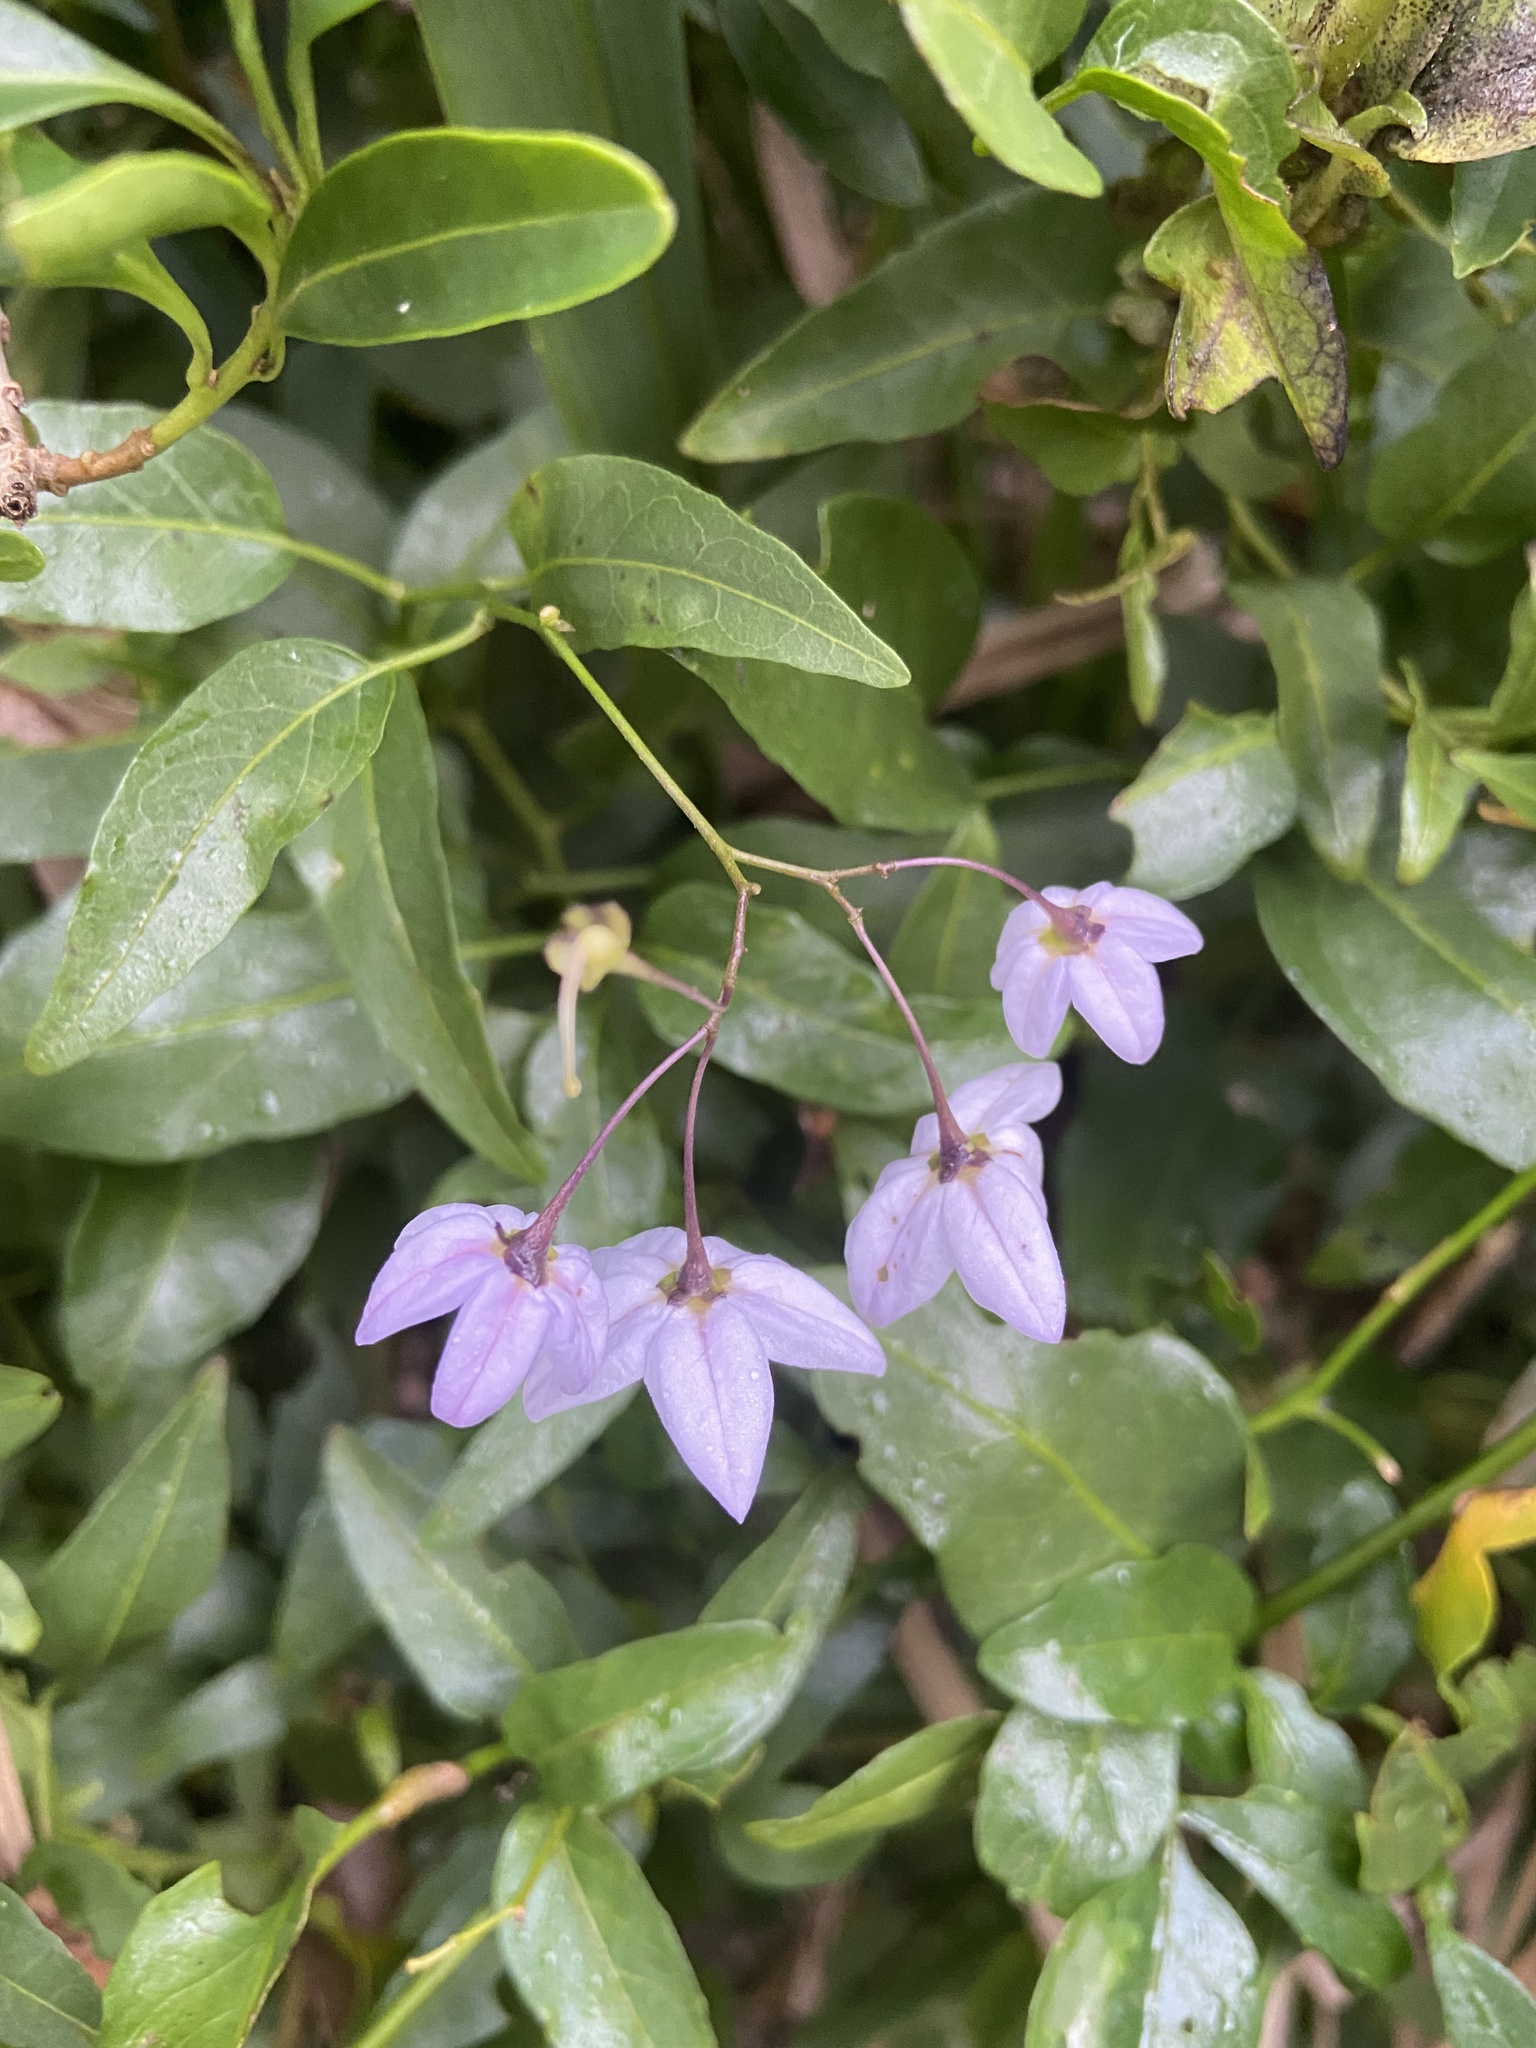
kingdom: Plantae
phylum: Tracheophyta
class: Magnoliopsida
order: Solanales
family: Solanaceae
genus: Solanum
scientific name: Solanum laxum
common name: Nightshade
